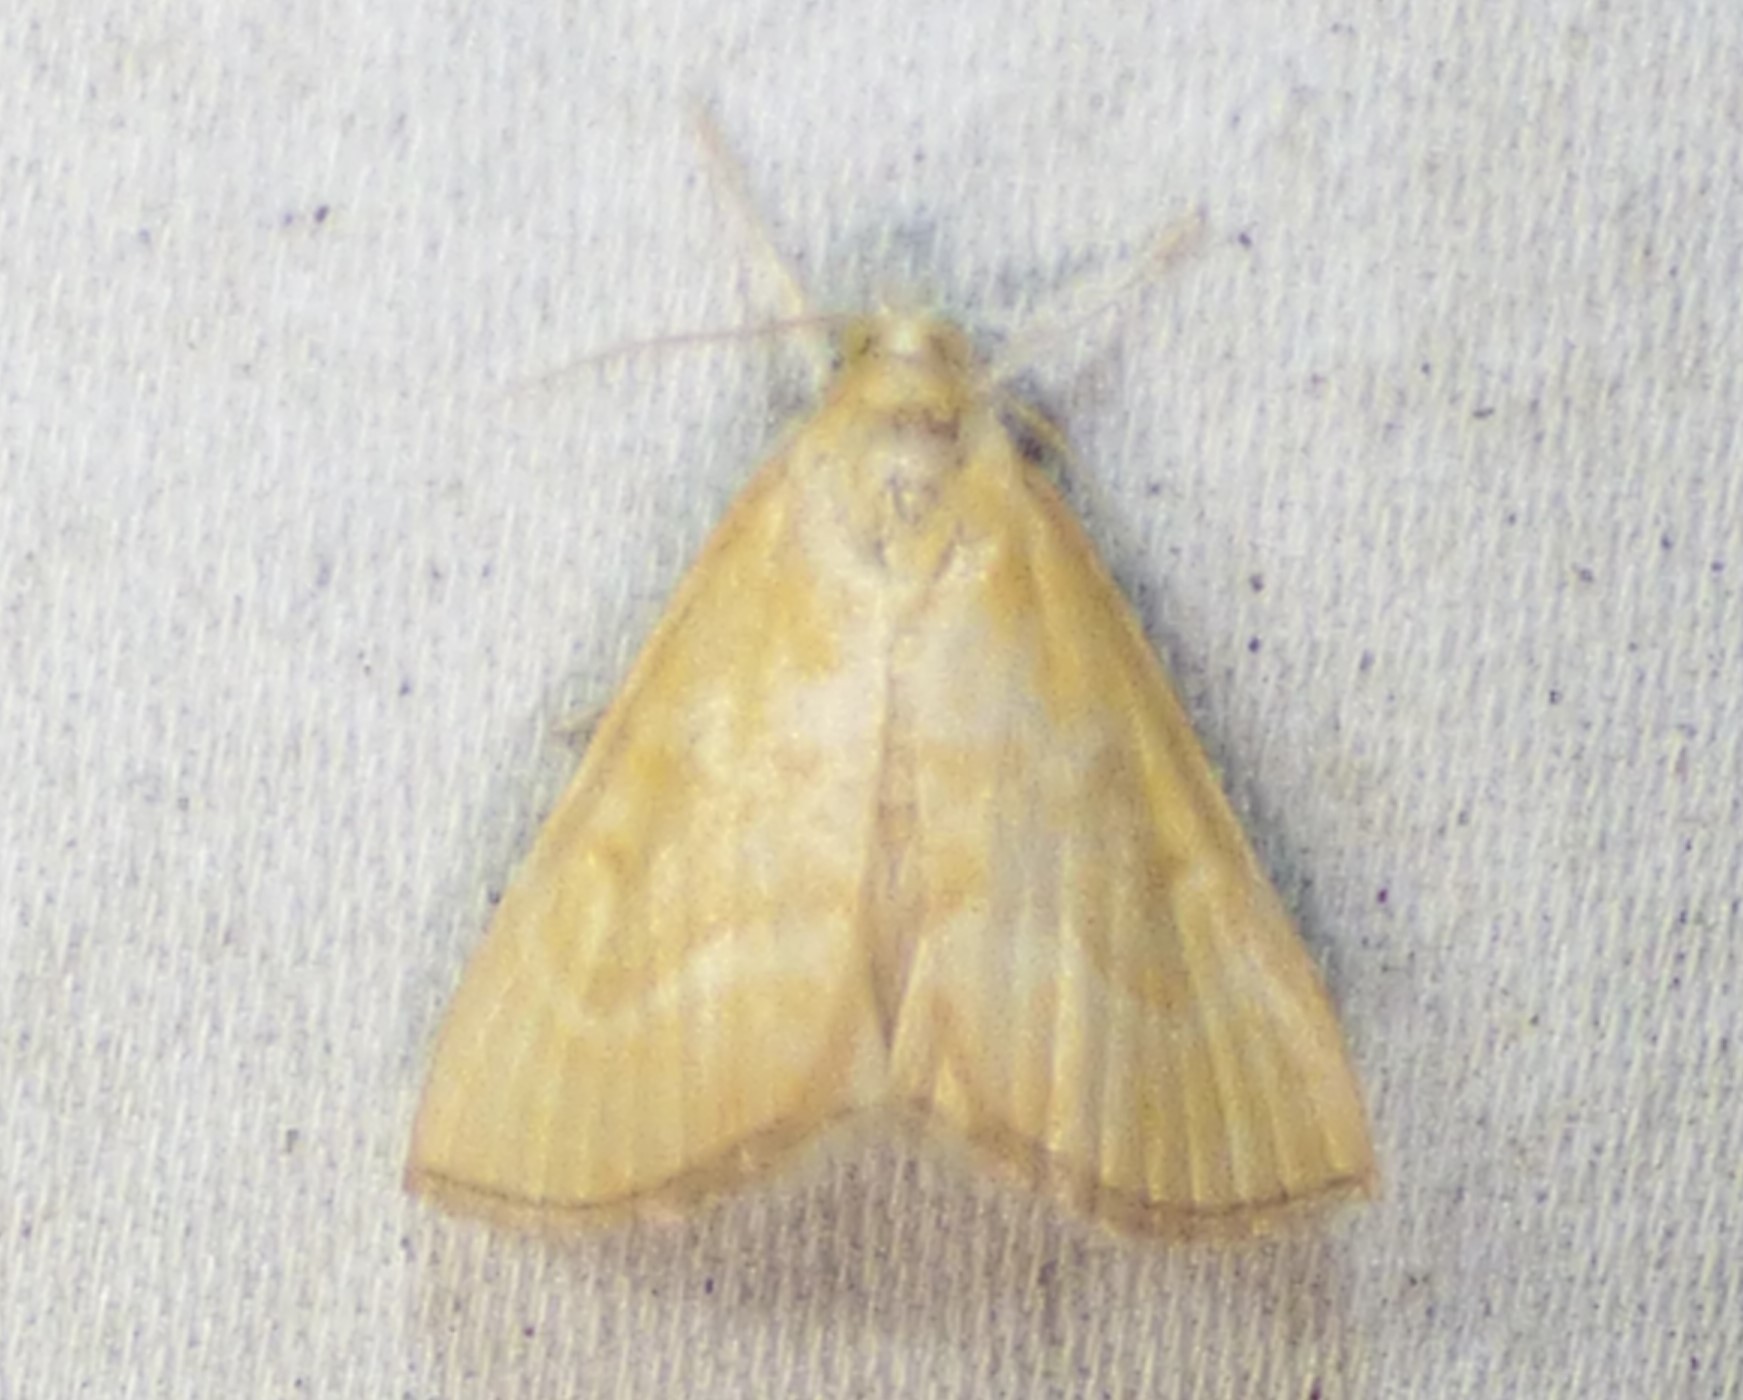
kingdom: Animalia
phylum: Arthropoda
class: Insecta
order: Lepidoptera
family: Crambidae
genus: Aethiophysa
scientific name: Aethiophysa
